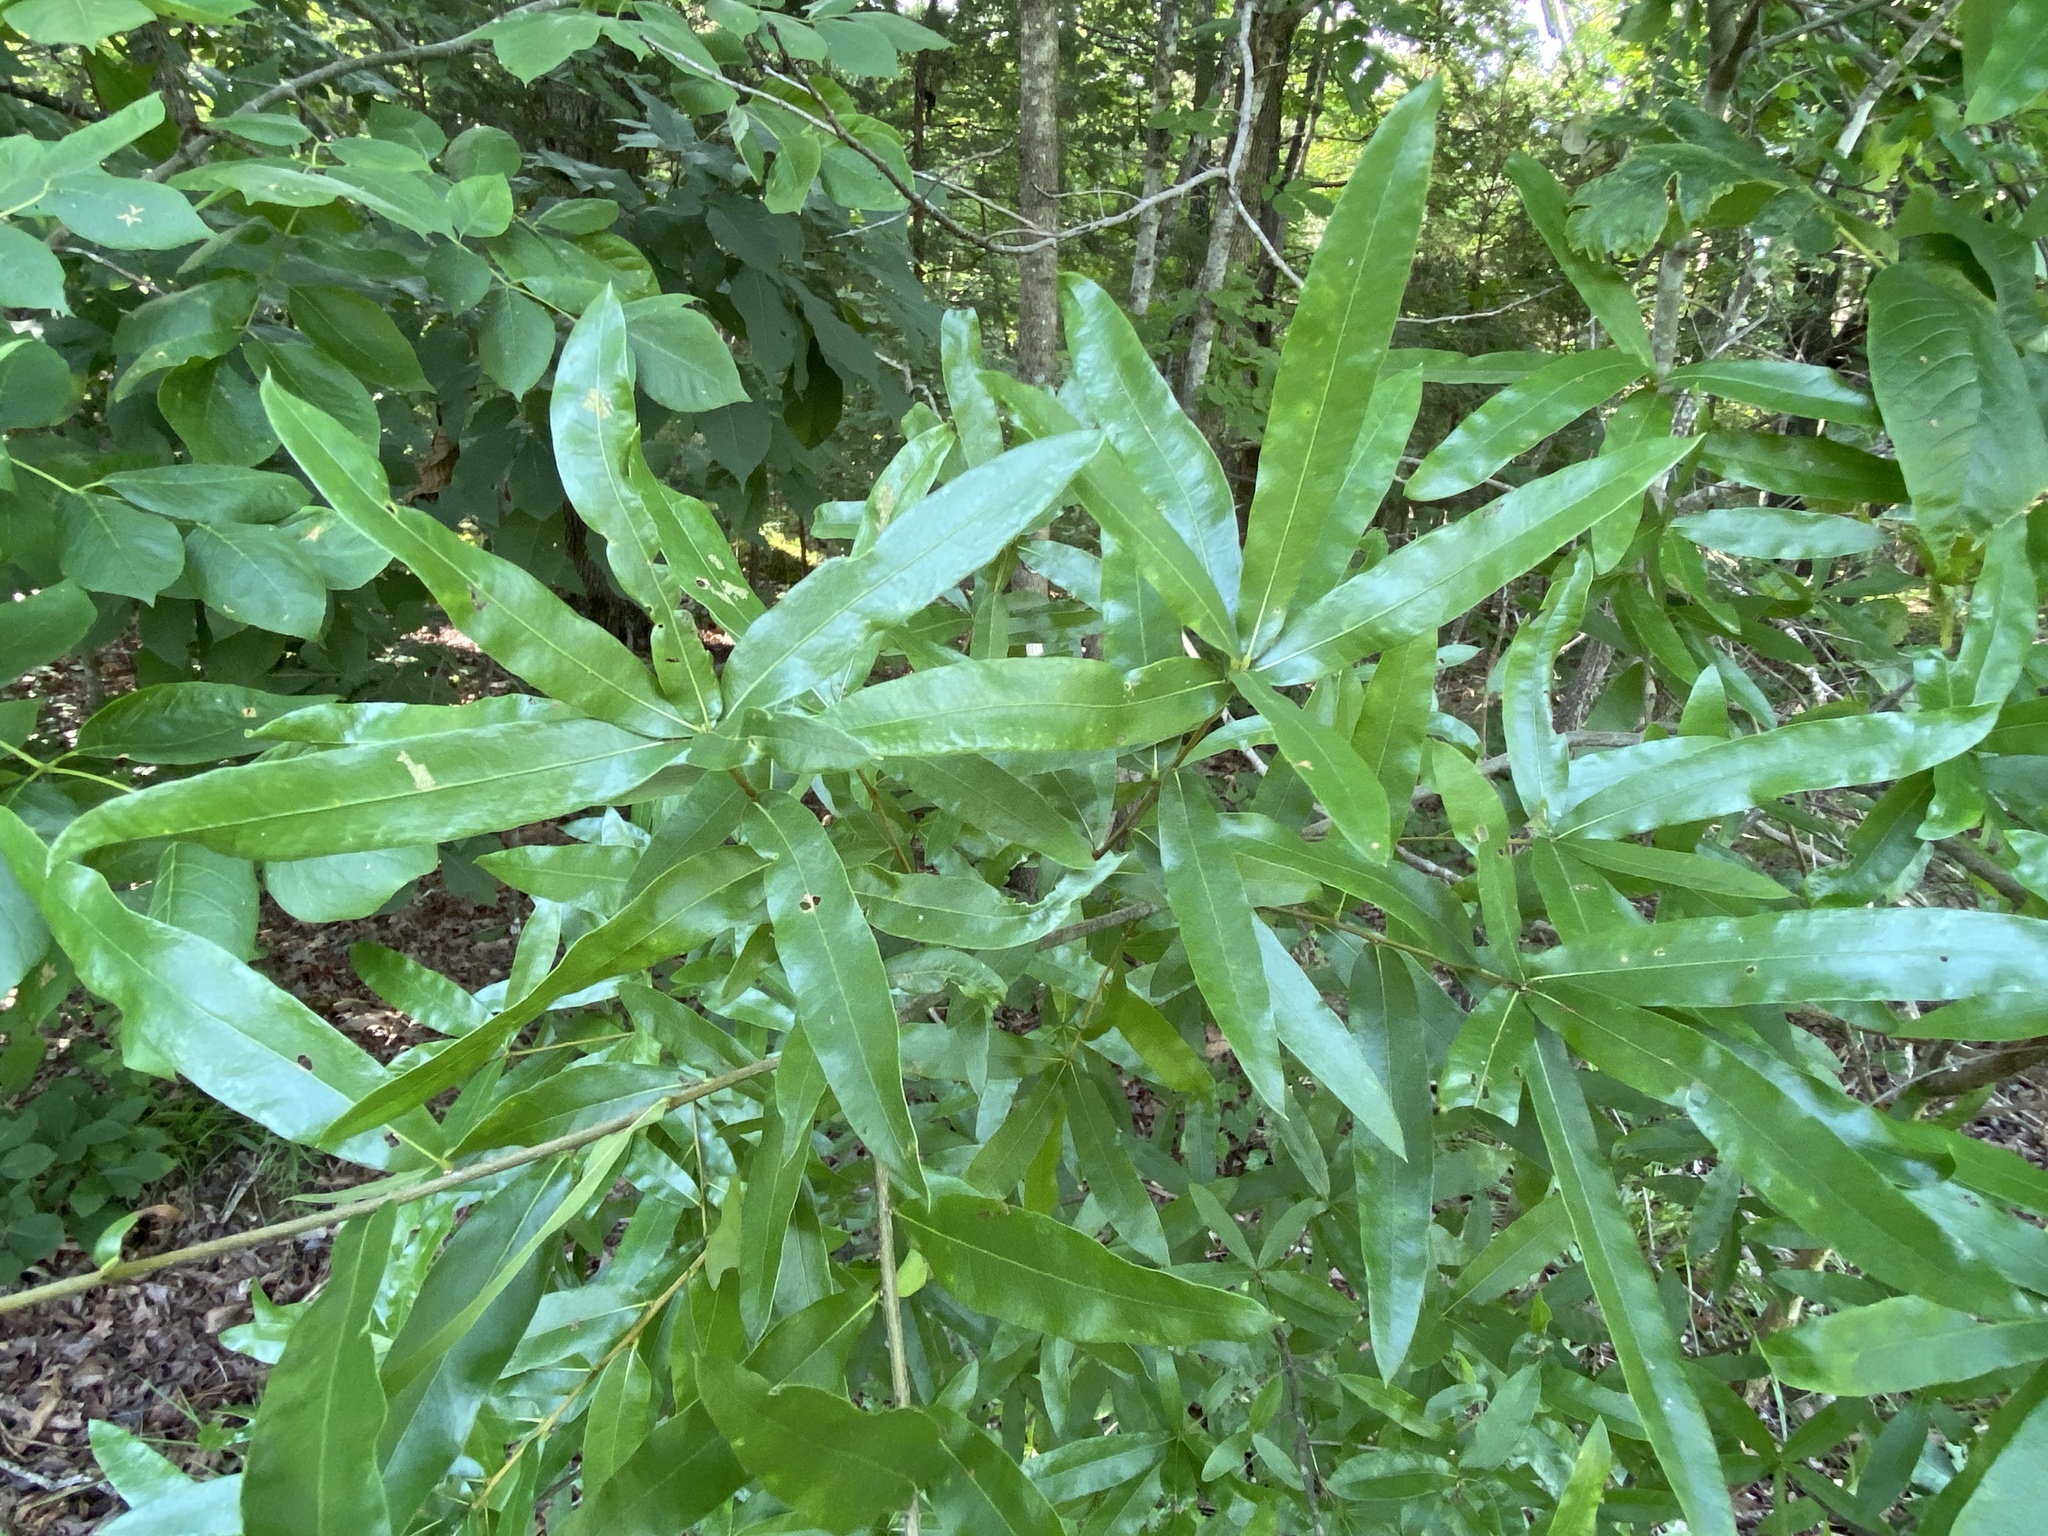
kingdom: Plantae
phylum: Tracheophyta
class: Magnoliopsida
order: Fagales
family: Fagaceae
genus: Quercus
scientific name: Quercus phellos
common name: Willow oak
